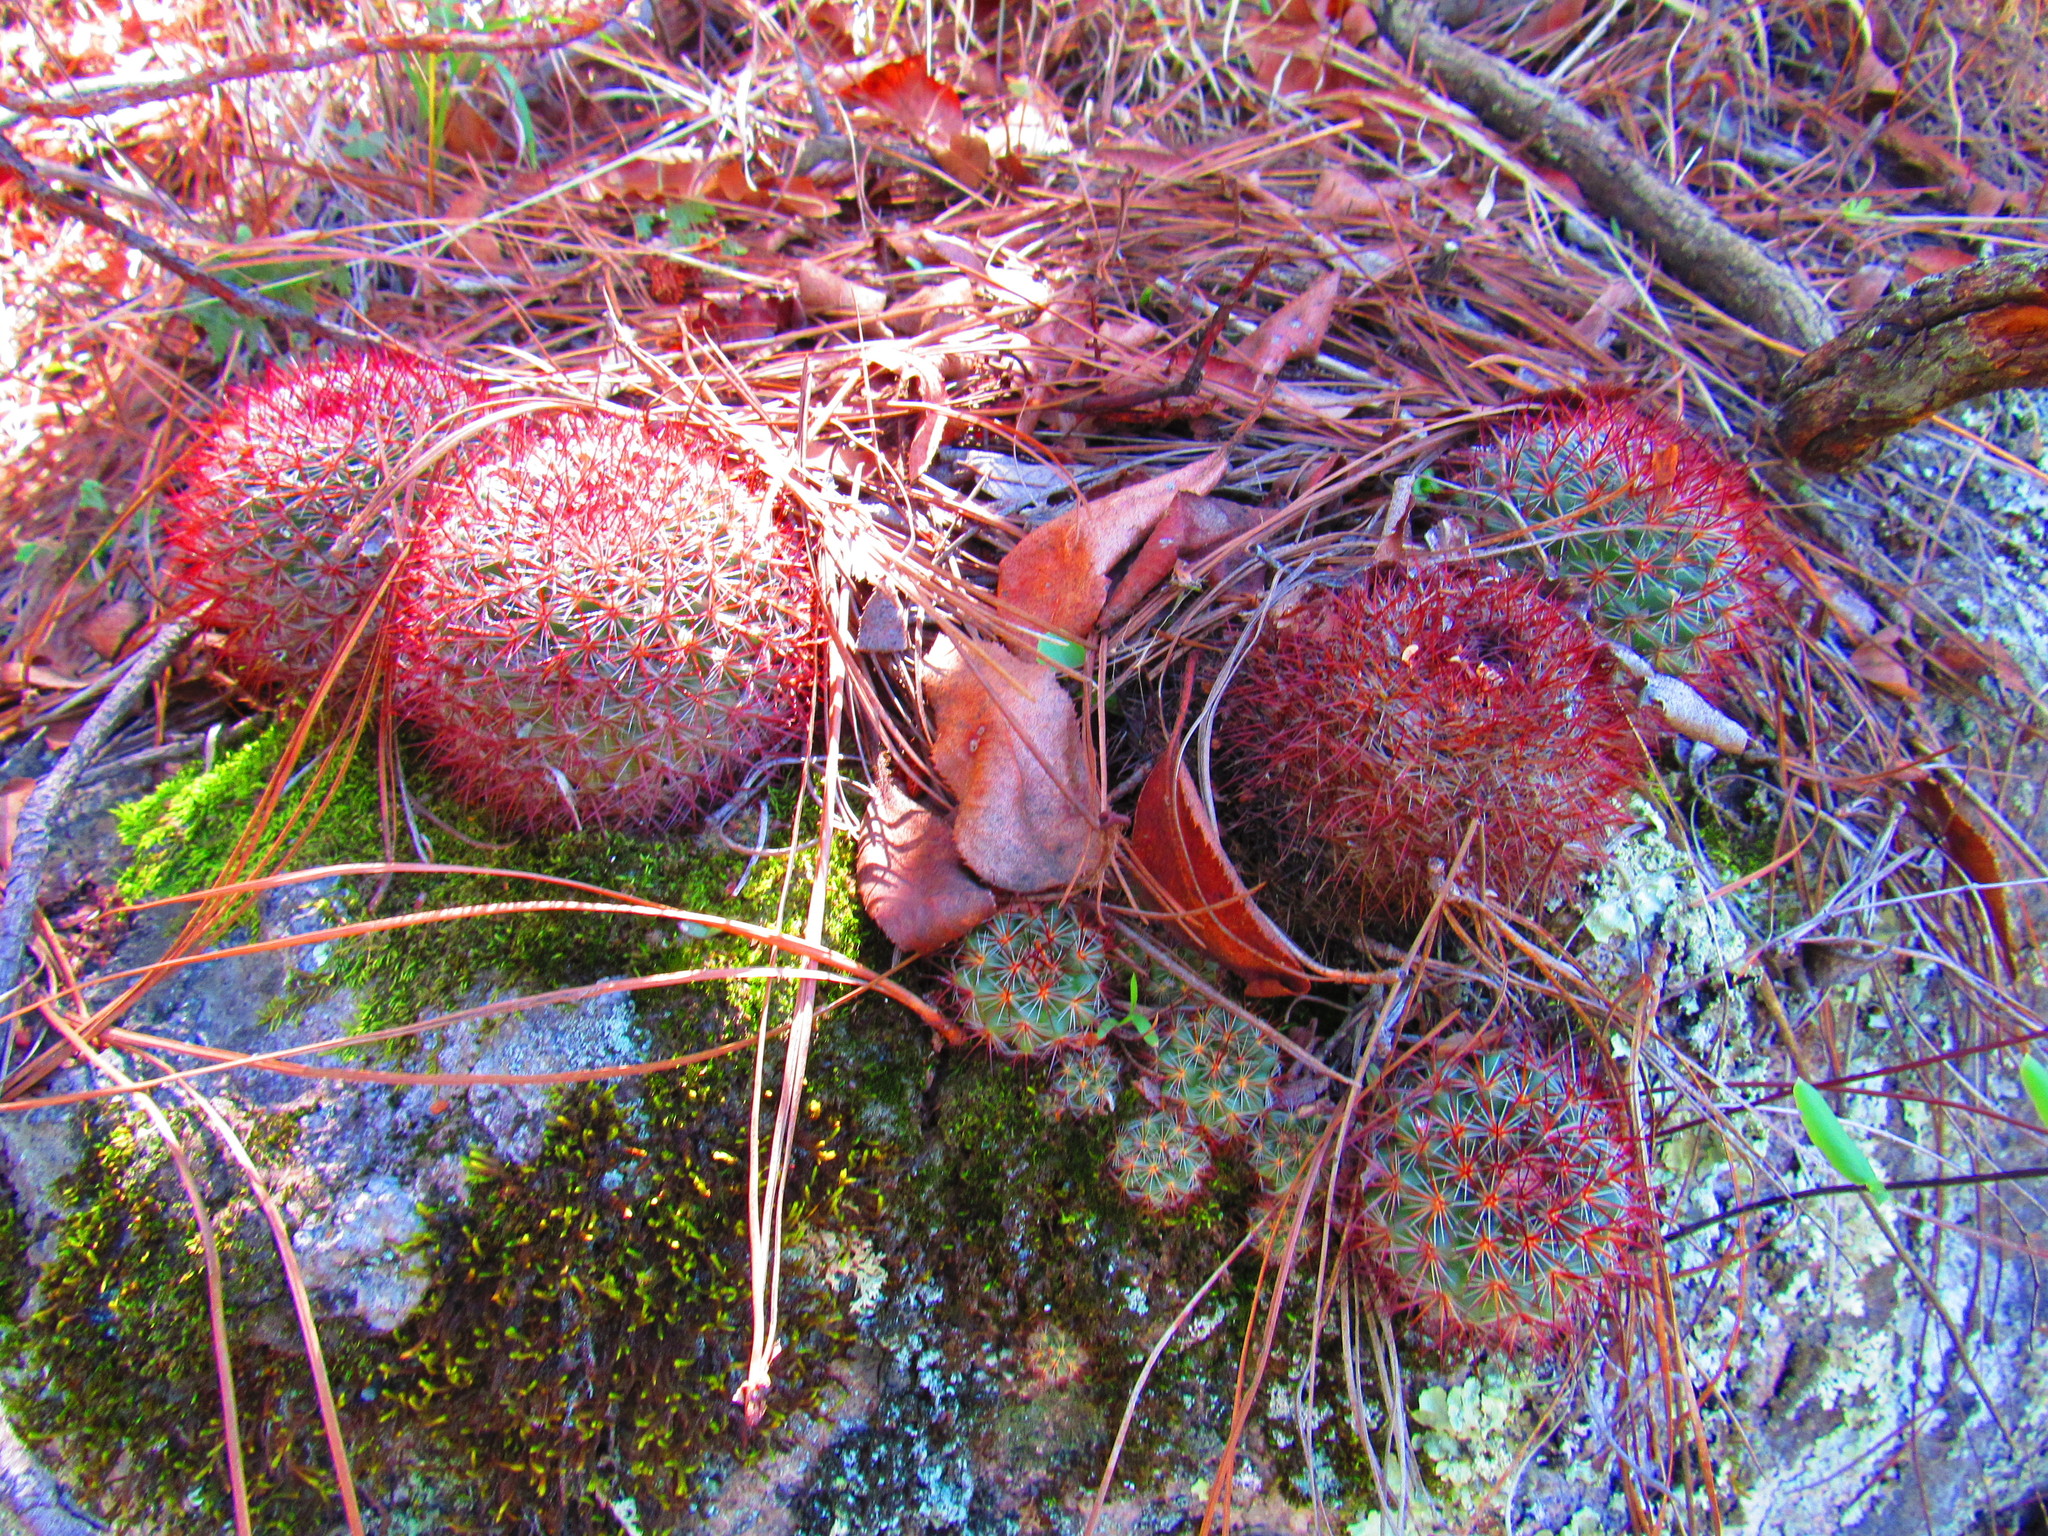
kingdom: Plantae
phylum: Tracheophyta
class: Magnoliopsida
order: Caryophyllales
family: Cactaceae
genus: Mammillaria
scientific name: Mammillaria rhodantha
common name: Rainbow pincushion
